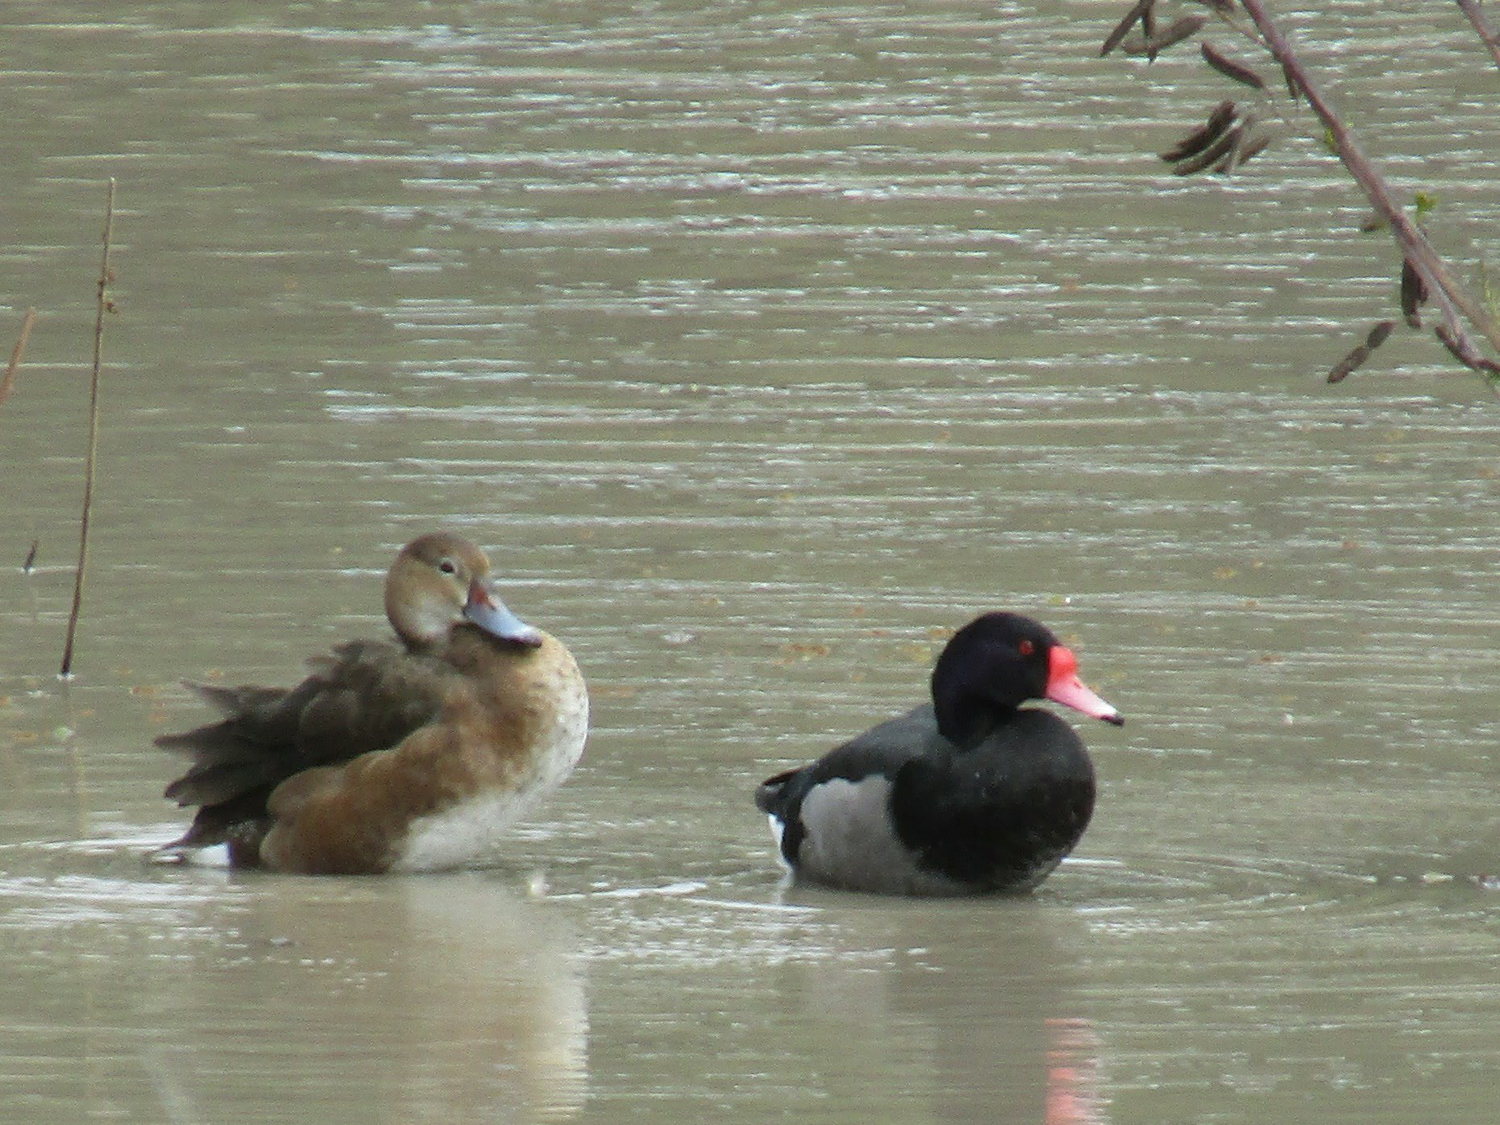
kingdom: Animalia
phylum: Chordata
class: Aves
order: Anseriformes
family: Anatidae
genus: Netta
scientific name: Netta peposaca
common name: Rosy-billed pochard
